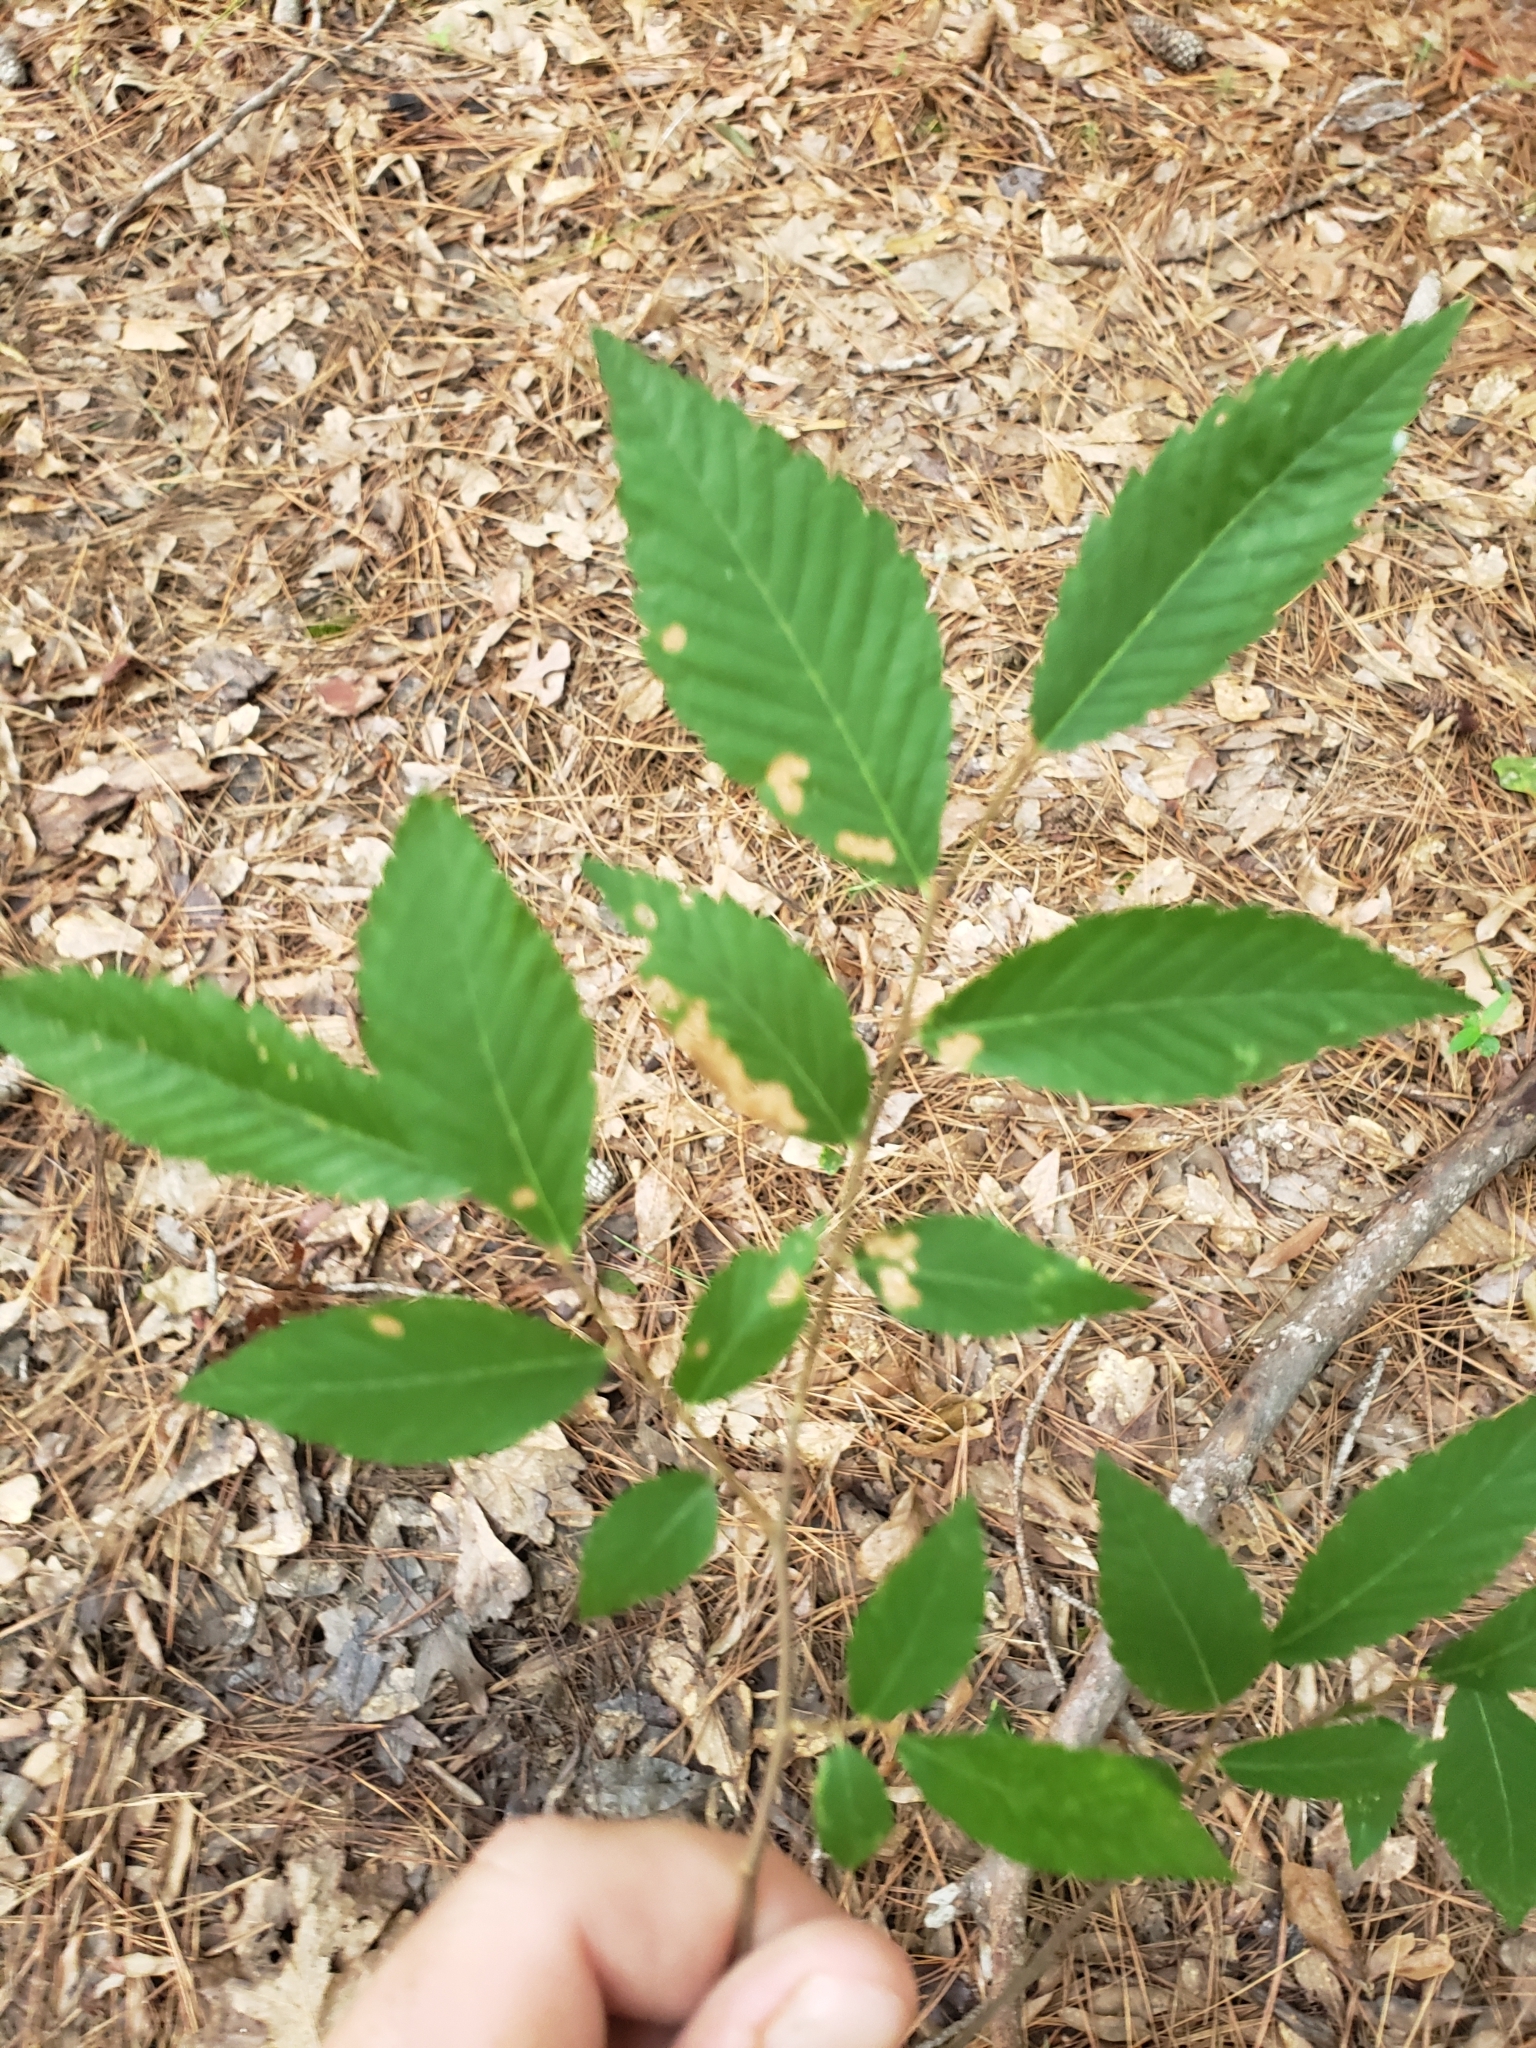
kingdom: Plantae
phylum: Tracheophyta
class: Magnoliopsida
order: Rosales
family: Ulmaceae
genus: Ulmus
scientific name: Ulmus alata
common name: Winged elm
